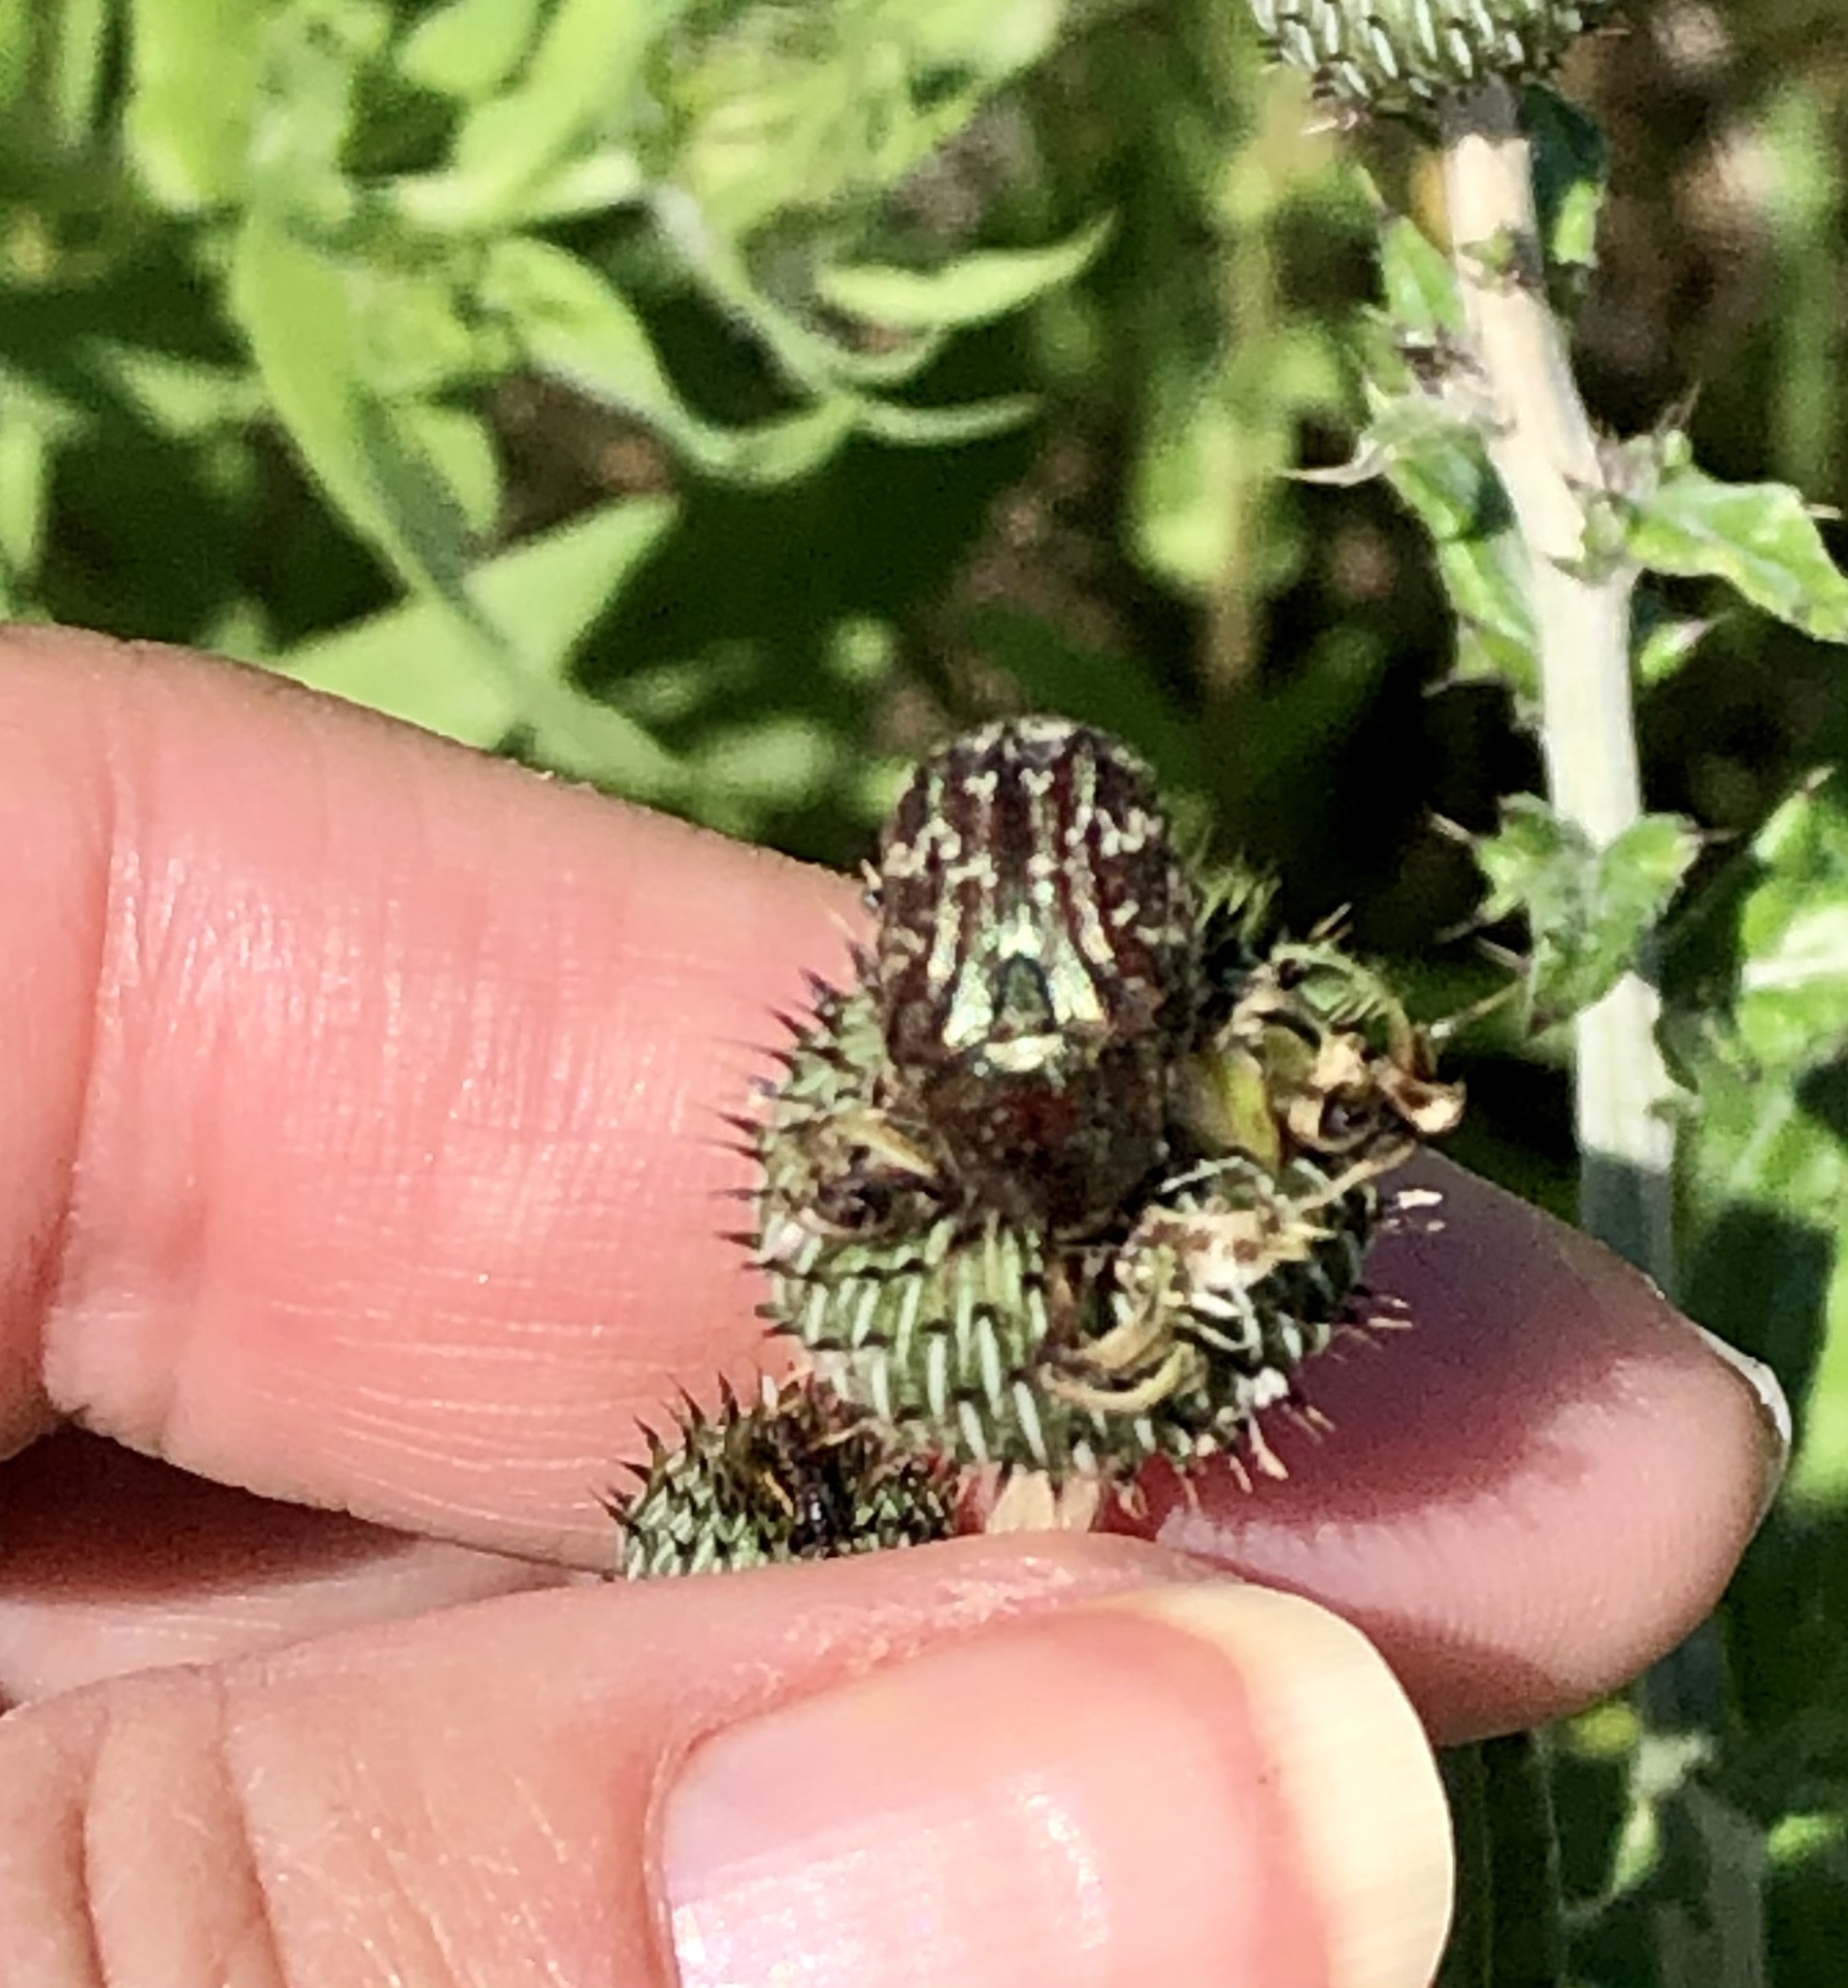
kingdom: Animalia
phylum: Arthropoda
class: Insecta
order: Coleoptera
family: Scarabaeidae
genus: Euphoria
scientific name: Euphoria sepulcralis
